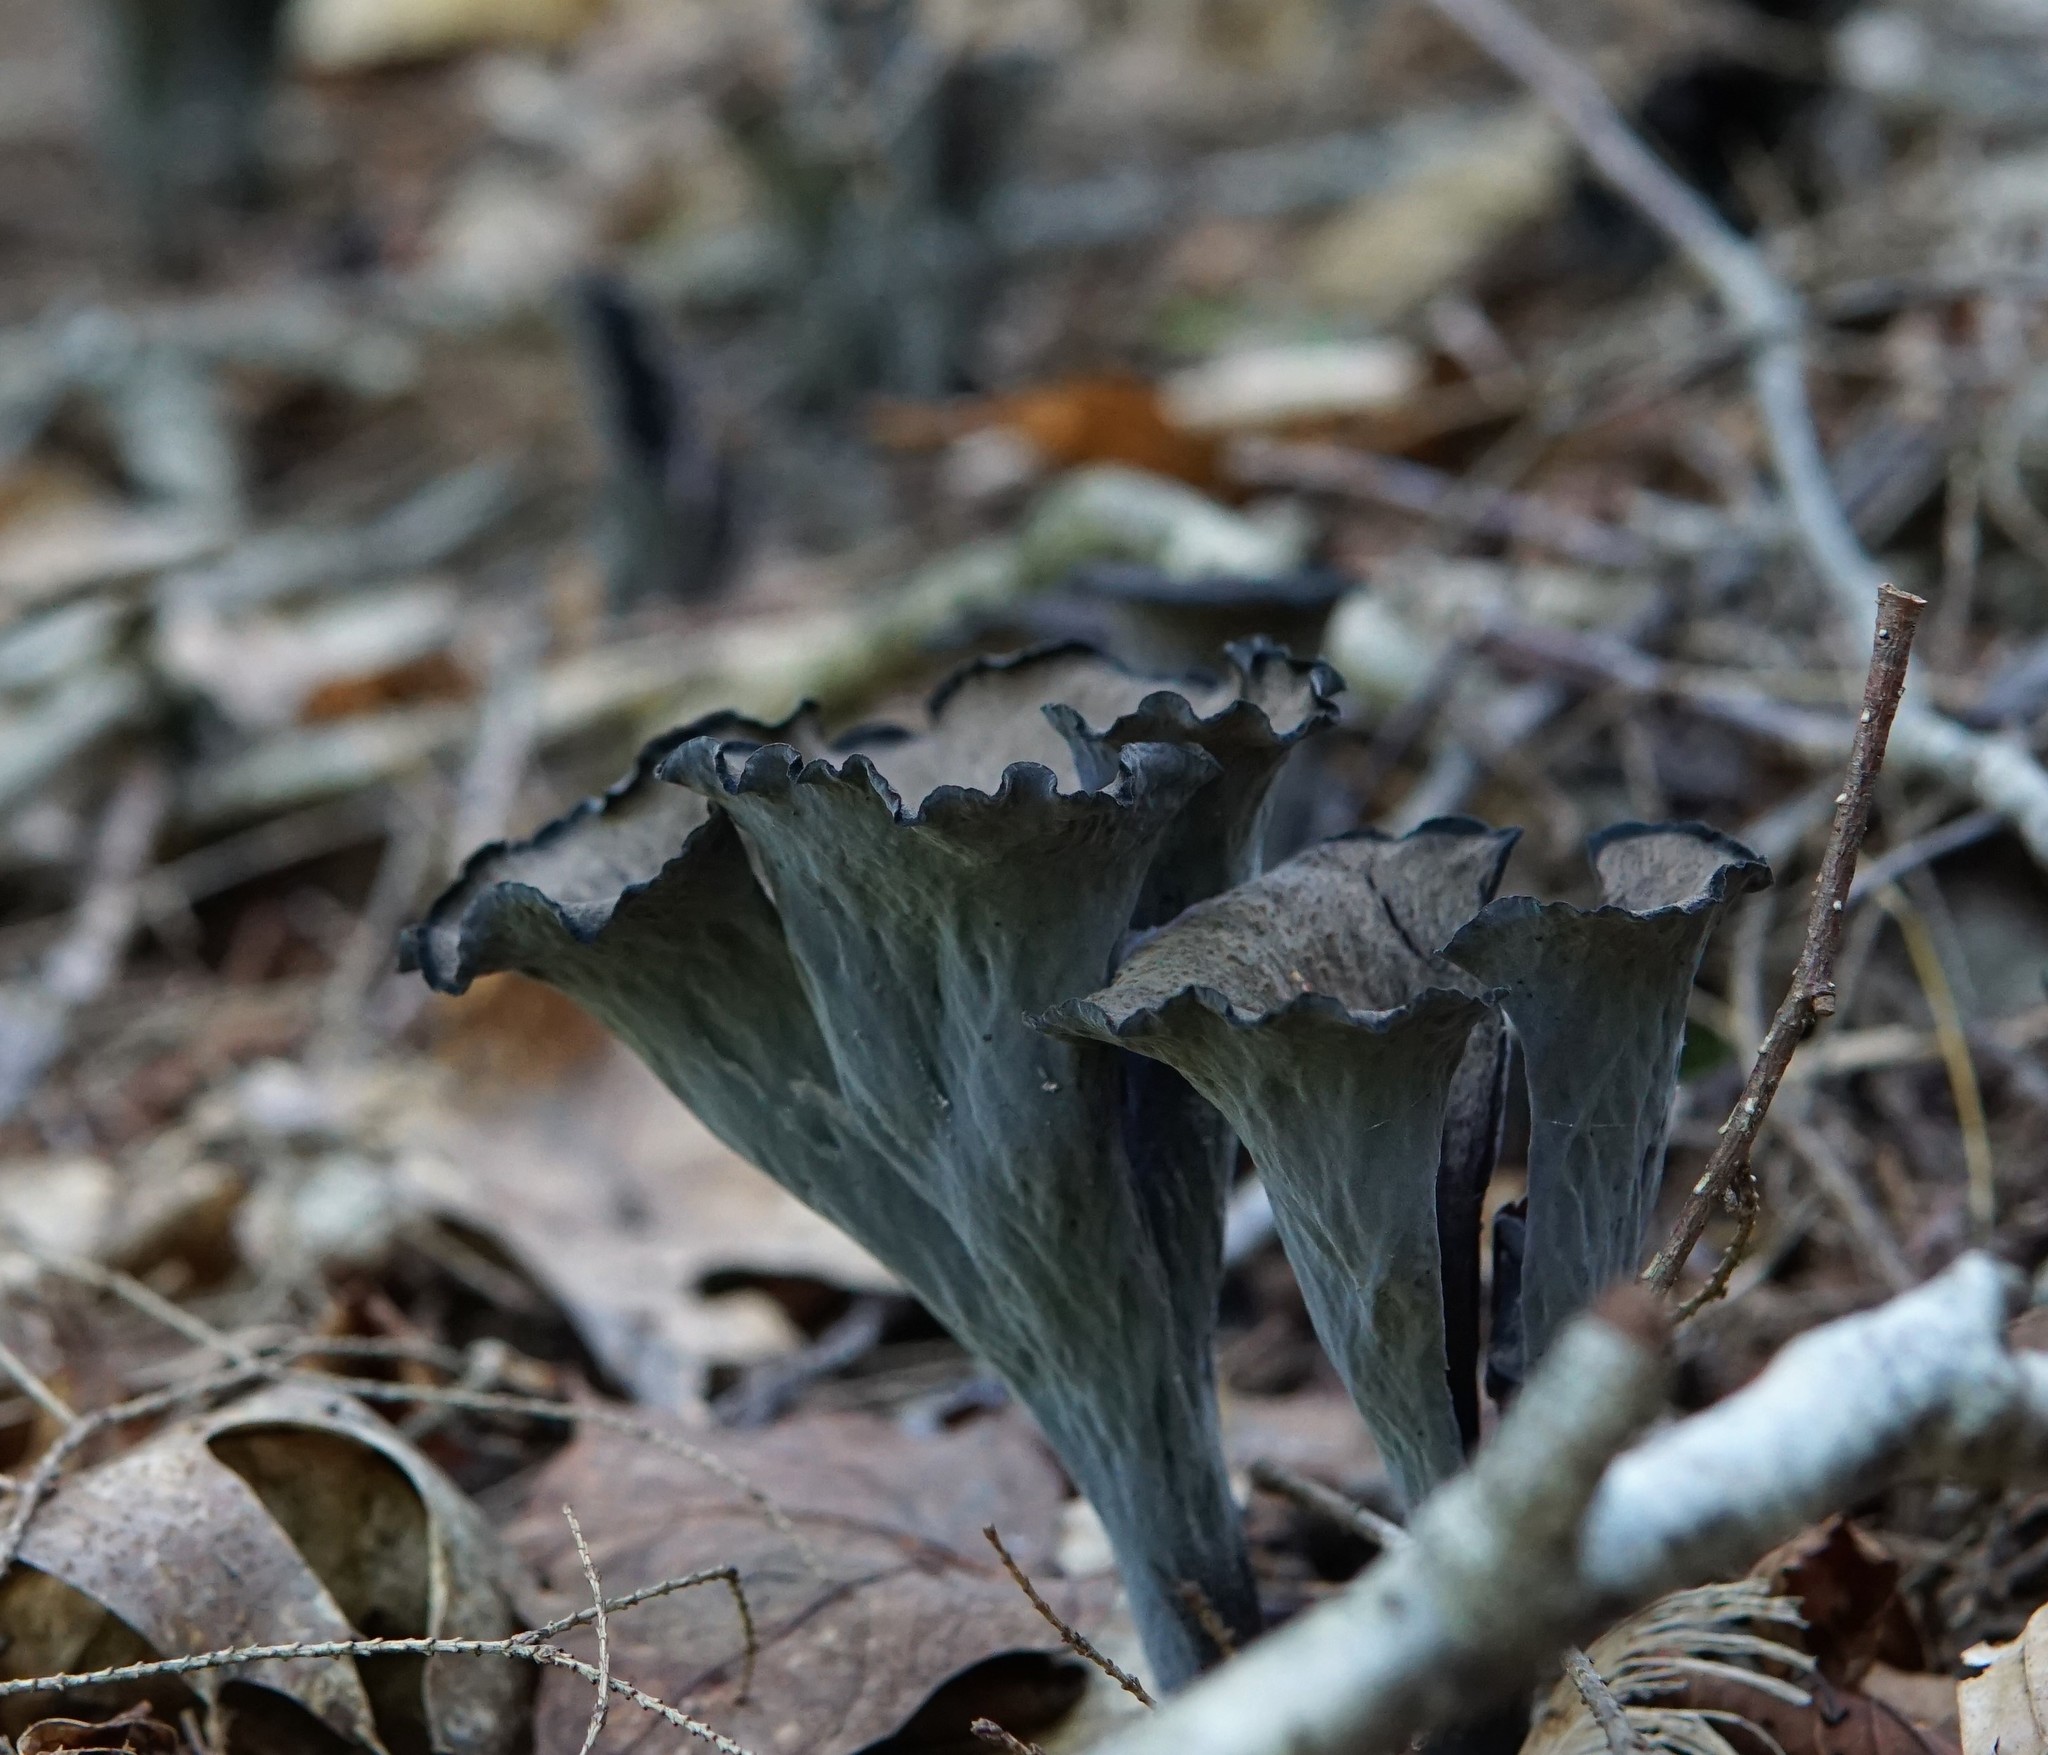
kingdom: Fungi
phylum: Basidiomycota
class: Agaricomycetes
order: Cantharellales
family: Hydnaceae
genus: Craterellus
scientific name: Craterellus cornucopioides
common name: Horn of plenty
